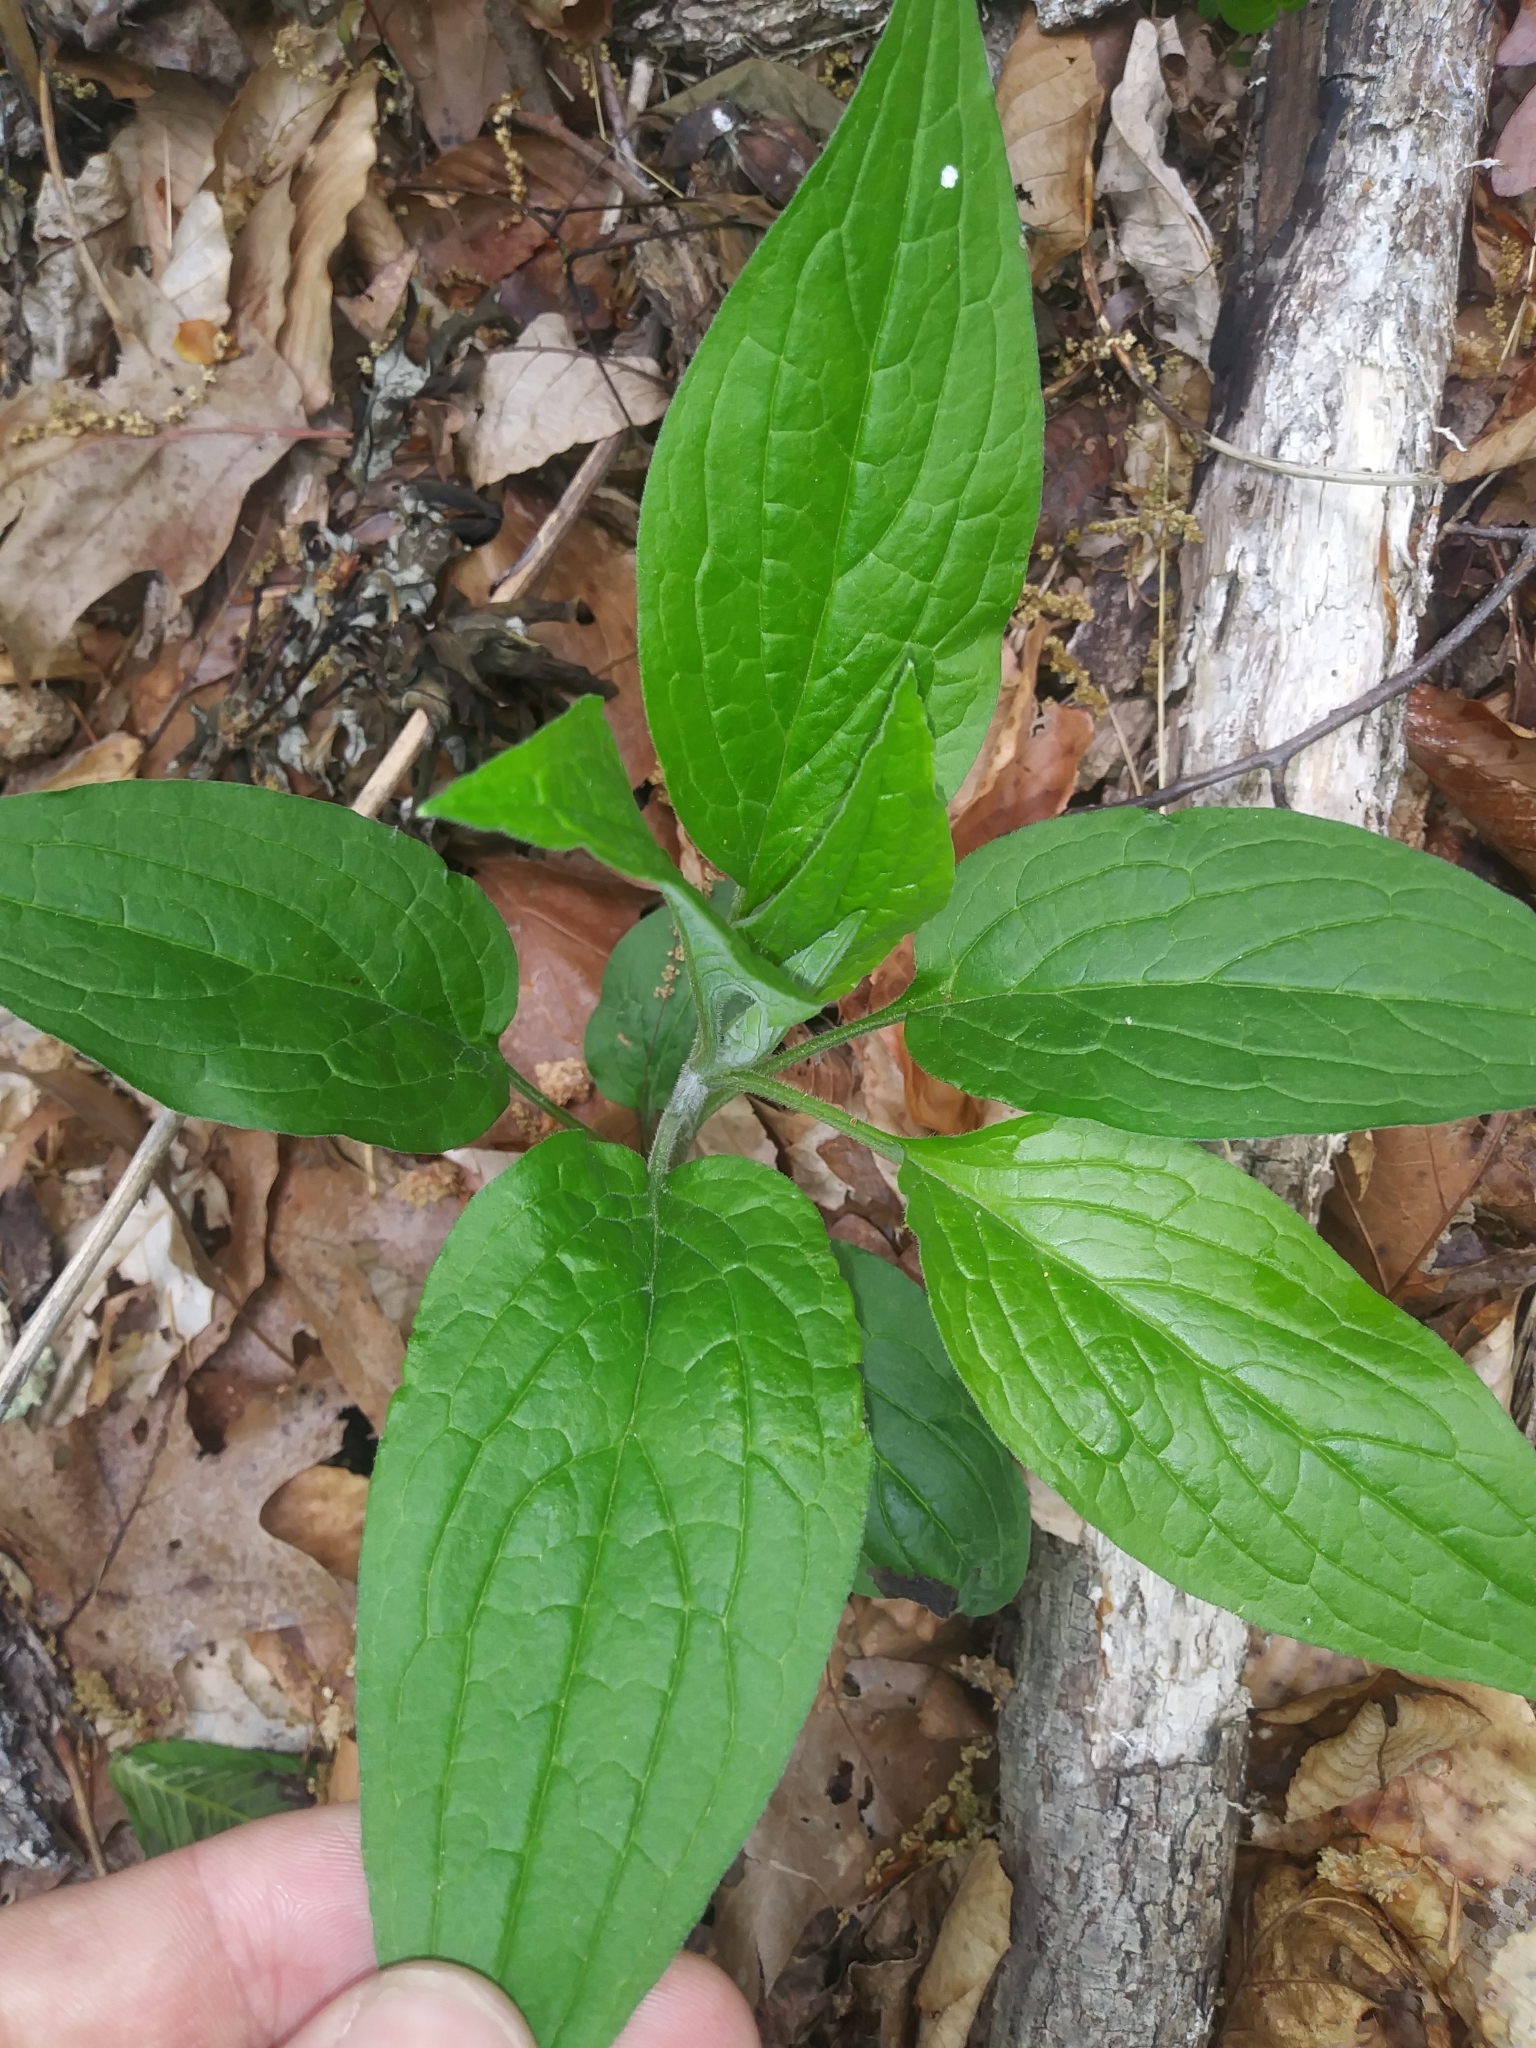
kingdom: Plantae
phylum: Tracheophyta
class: Magnoliopsida
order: Boraginales
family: Boraginaceae
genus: Hackelia
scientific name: Hackelia virginiana
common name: Beggar's-lice
